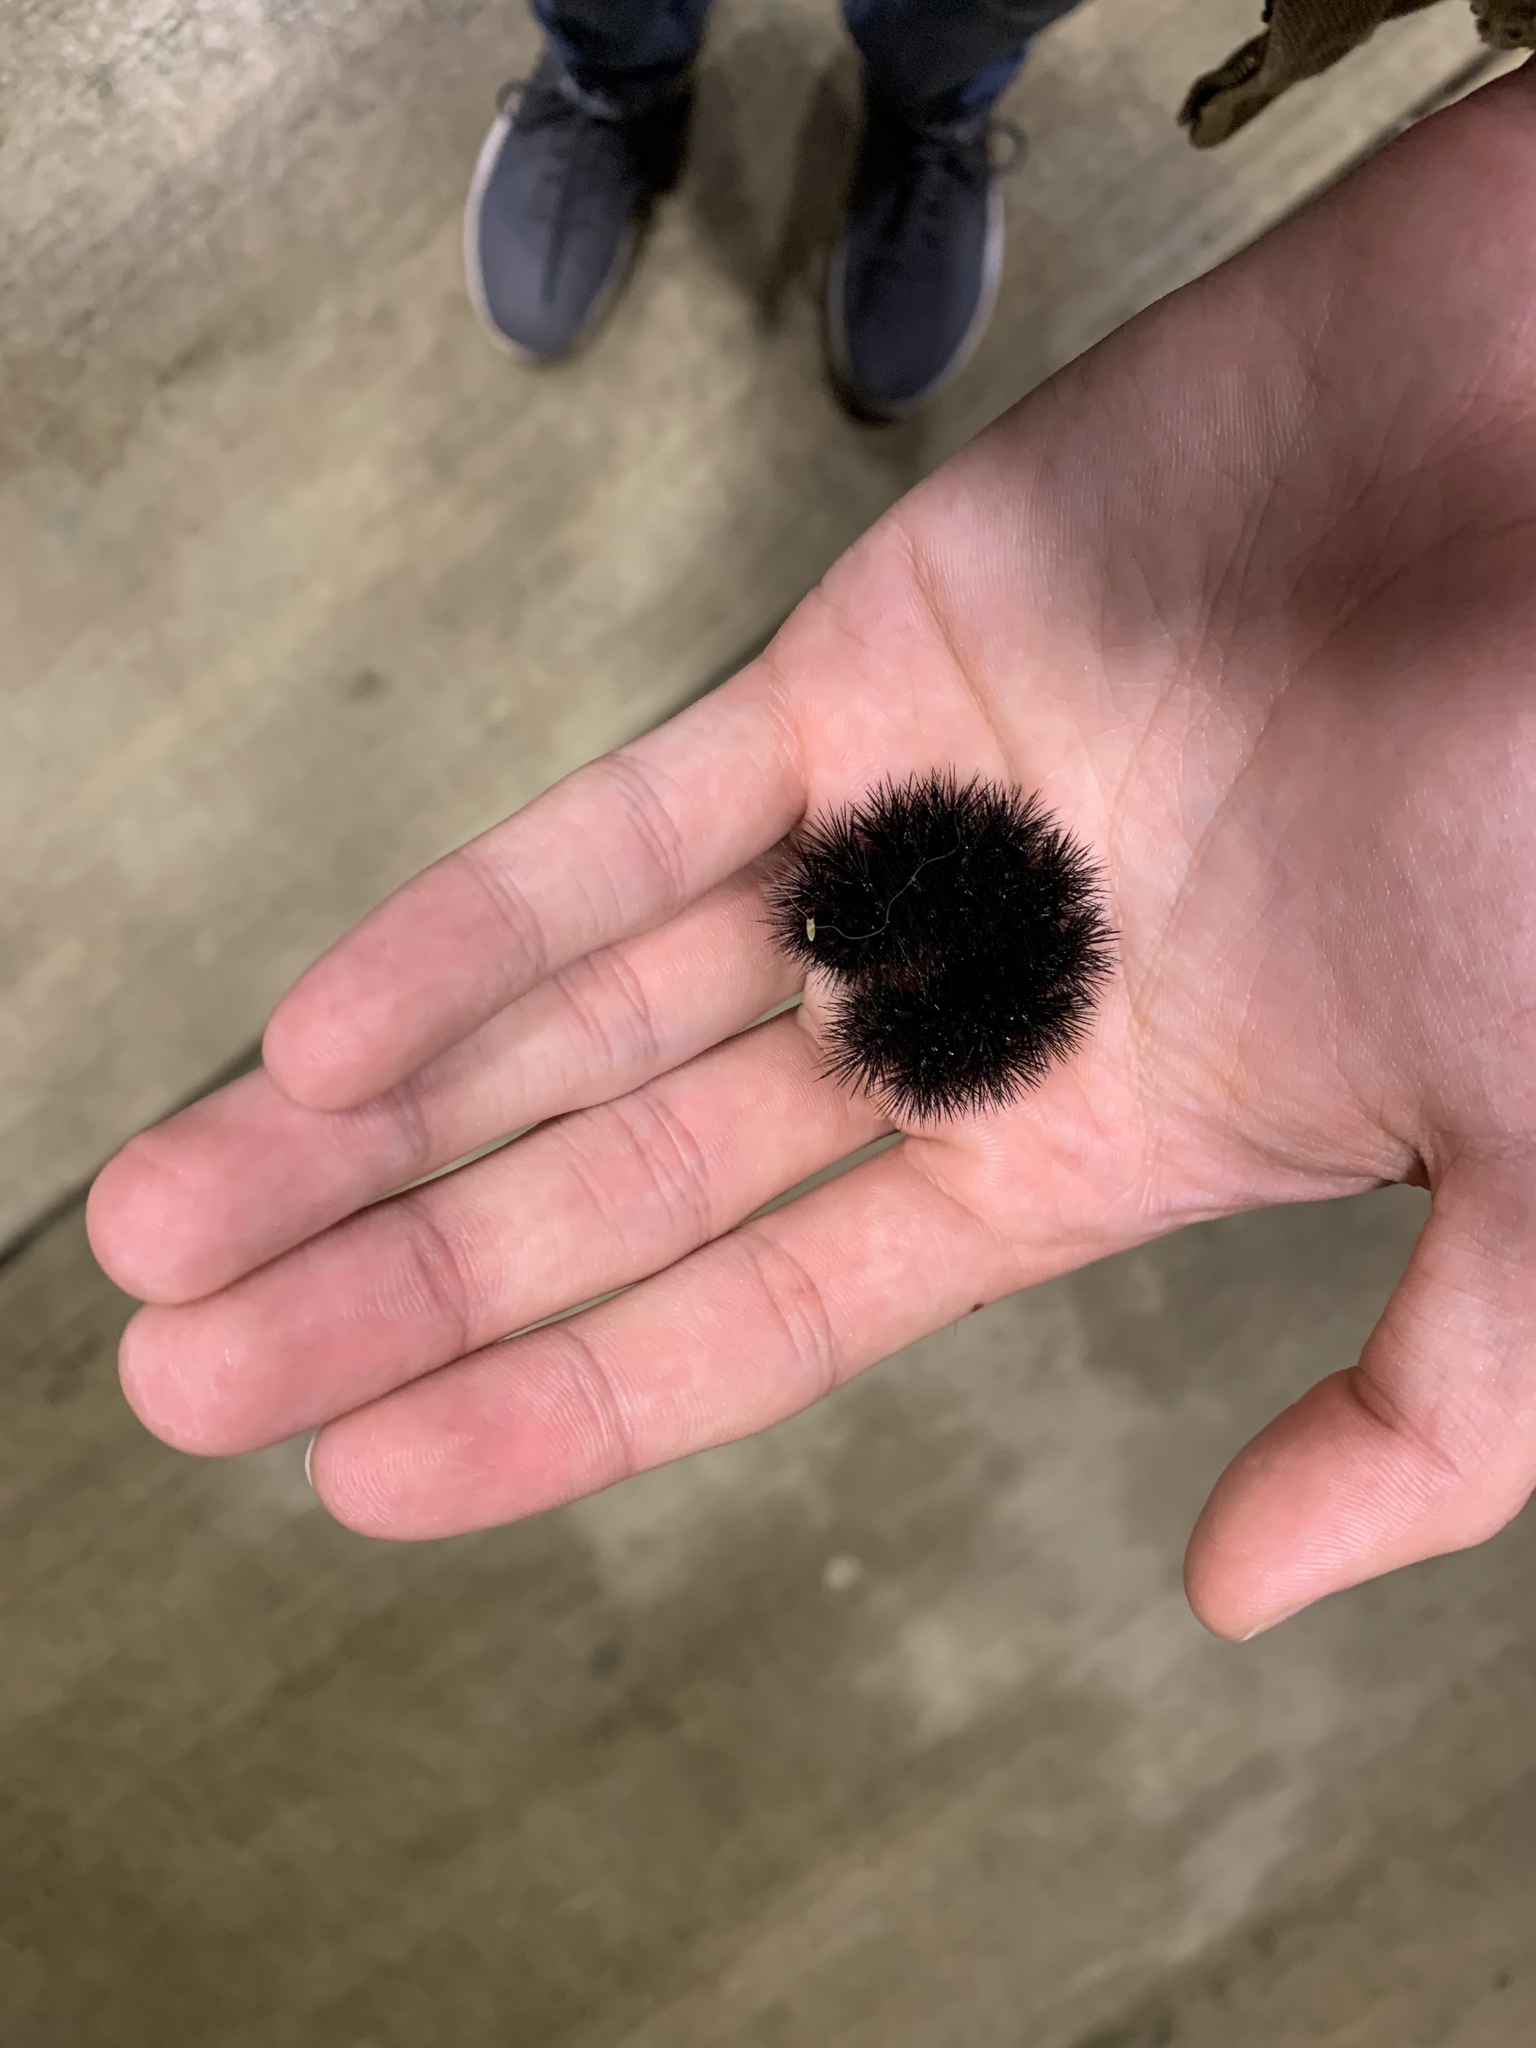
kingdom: Animalia
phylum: Arthropoda
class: Insecta
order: Lepidoptera
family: Erebidae
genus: Hypercompe
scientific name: Hypercompe scribonia
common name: Giant leopard moth
